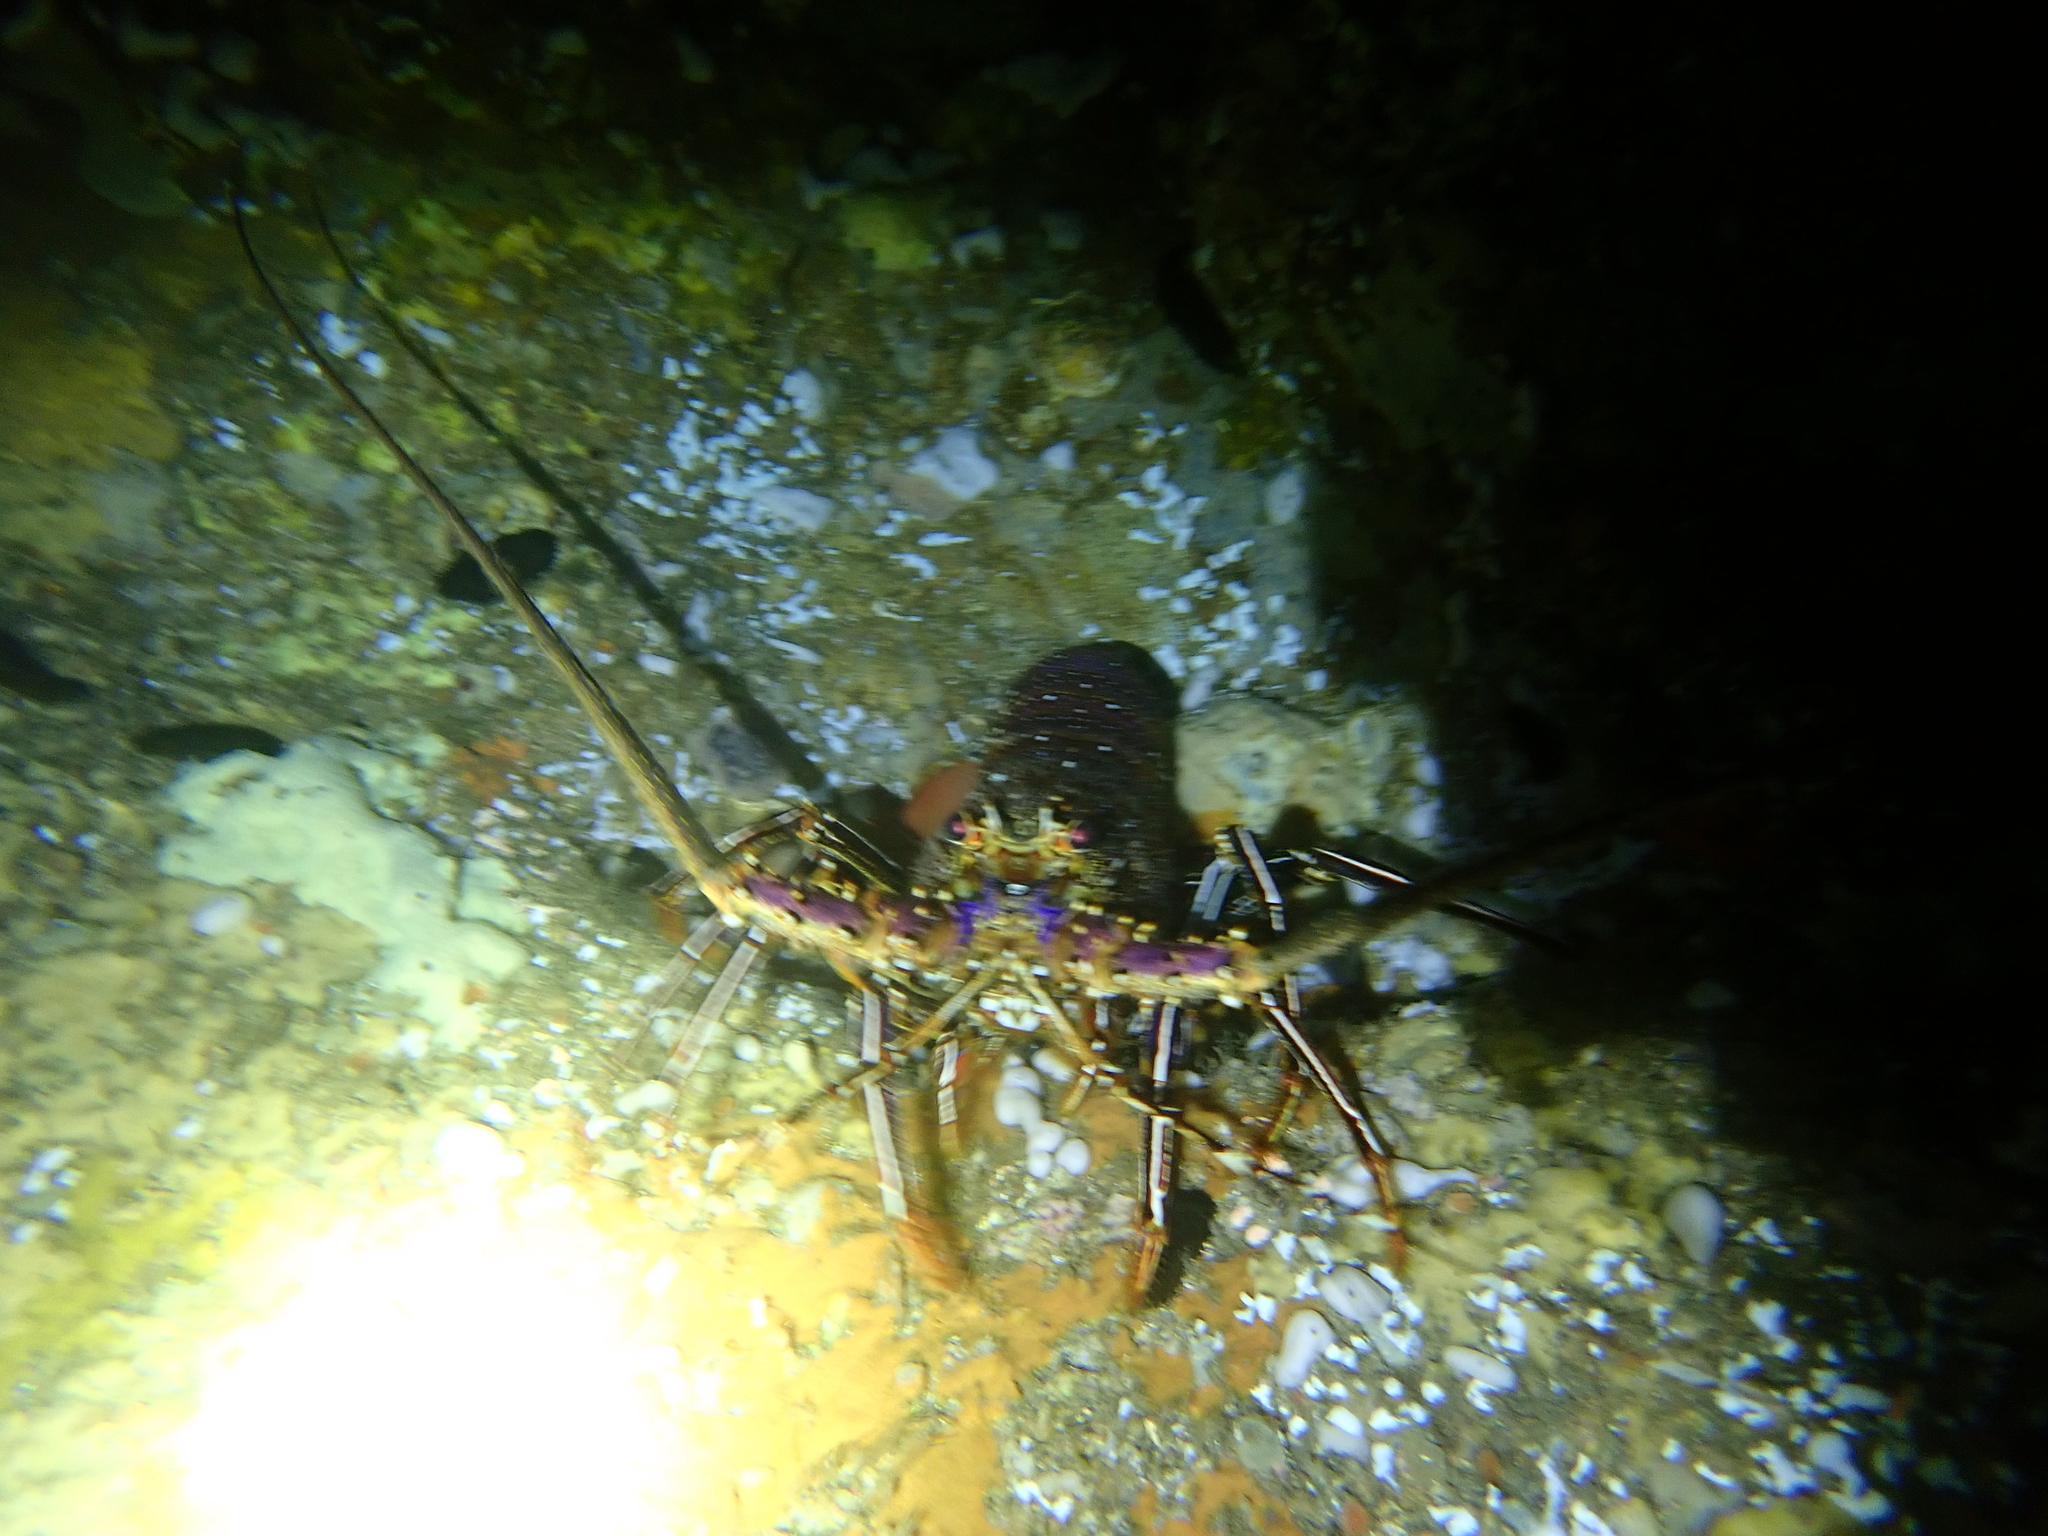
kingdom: Animalia
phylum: Arthropoda
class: Malacostraca
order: Decapoda
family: Palinuridae
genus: Panulirus
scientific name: Panulirus longipes
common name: Longlegged spiny lobster
